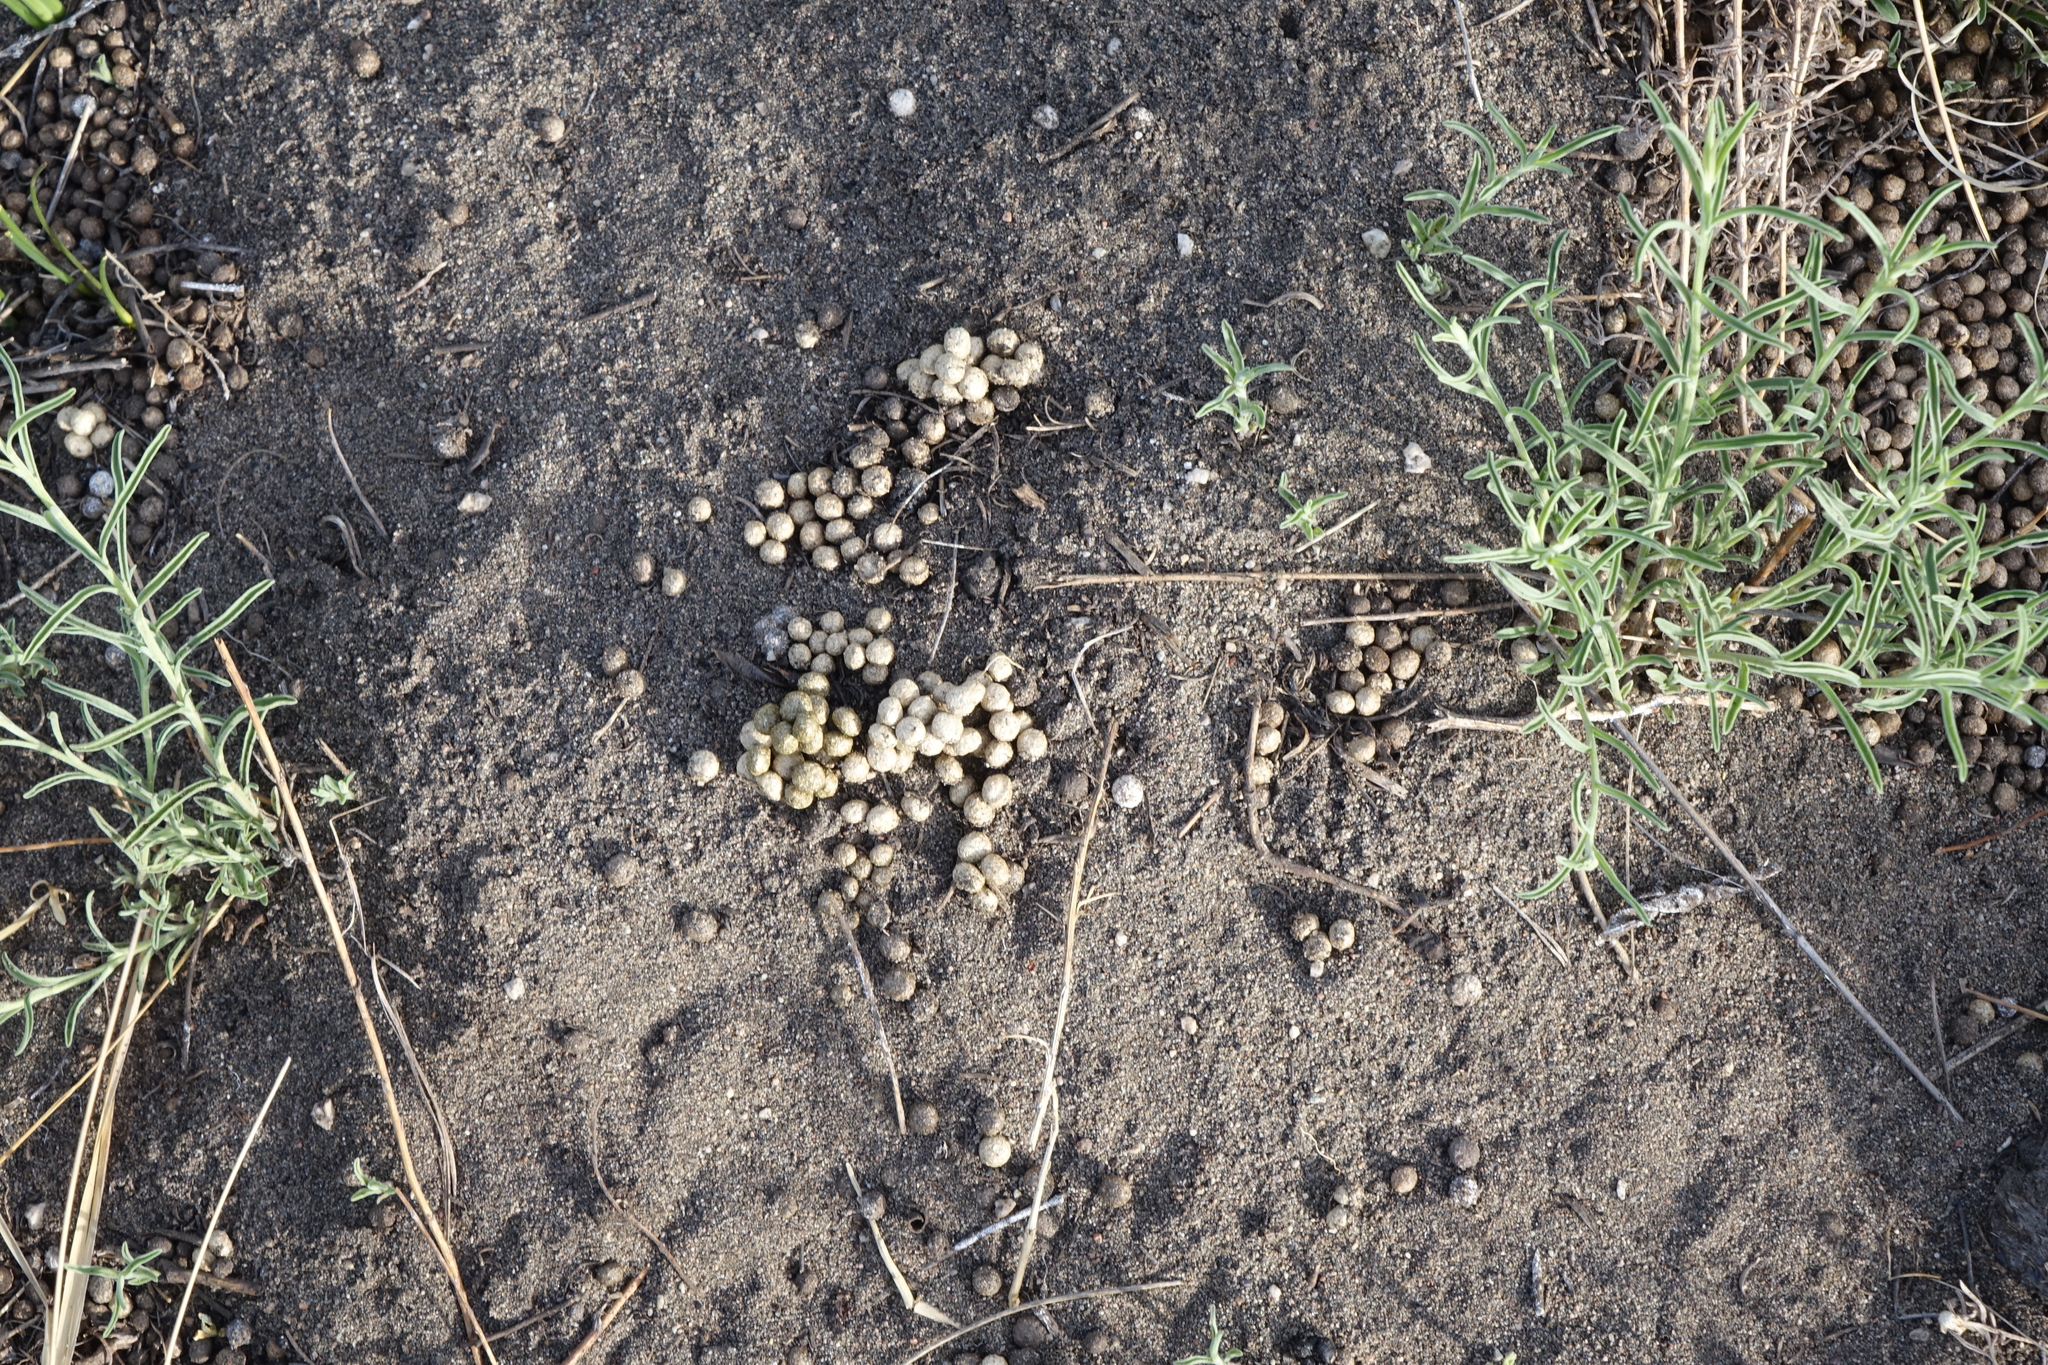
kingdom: Animalia
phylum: Chordata
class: Mammalia
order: Lagomorpha
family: Ochotonidae
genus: Ochotona
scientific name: Ochotona dauurica
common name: Daurian pika
